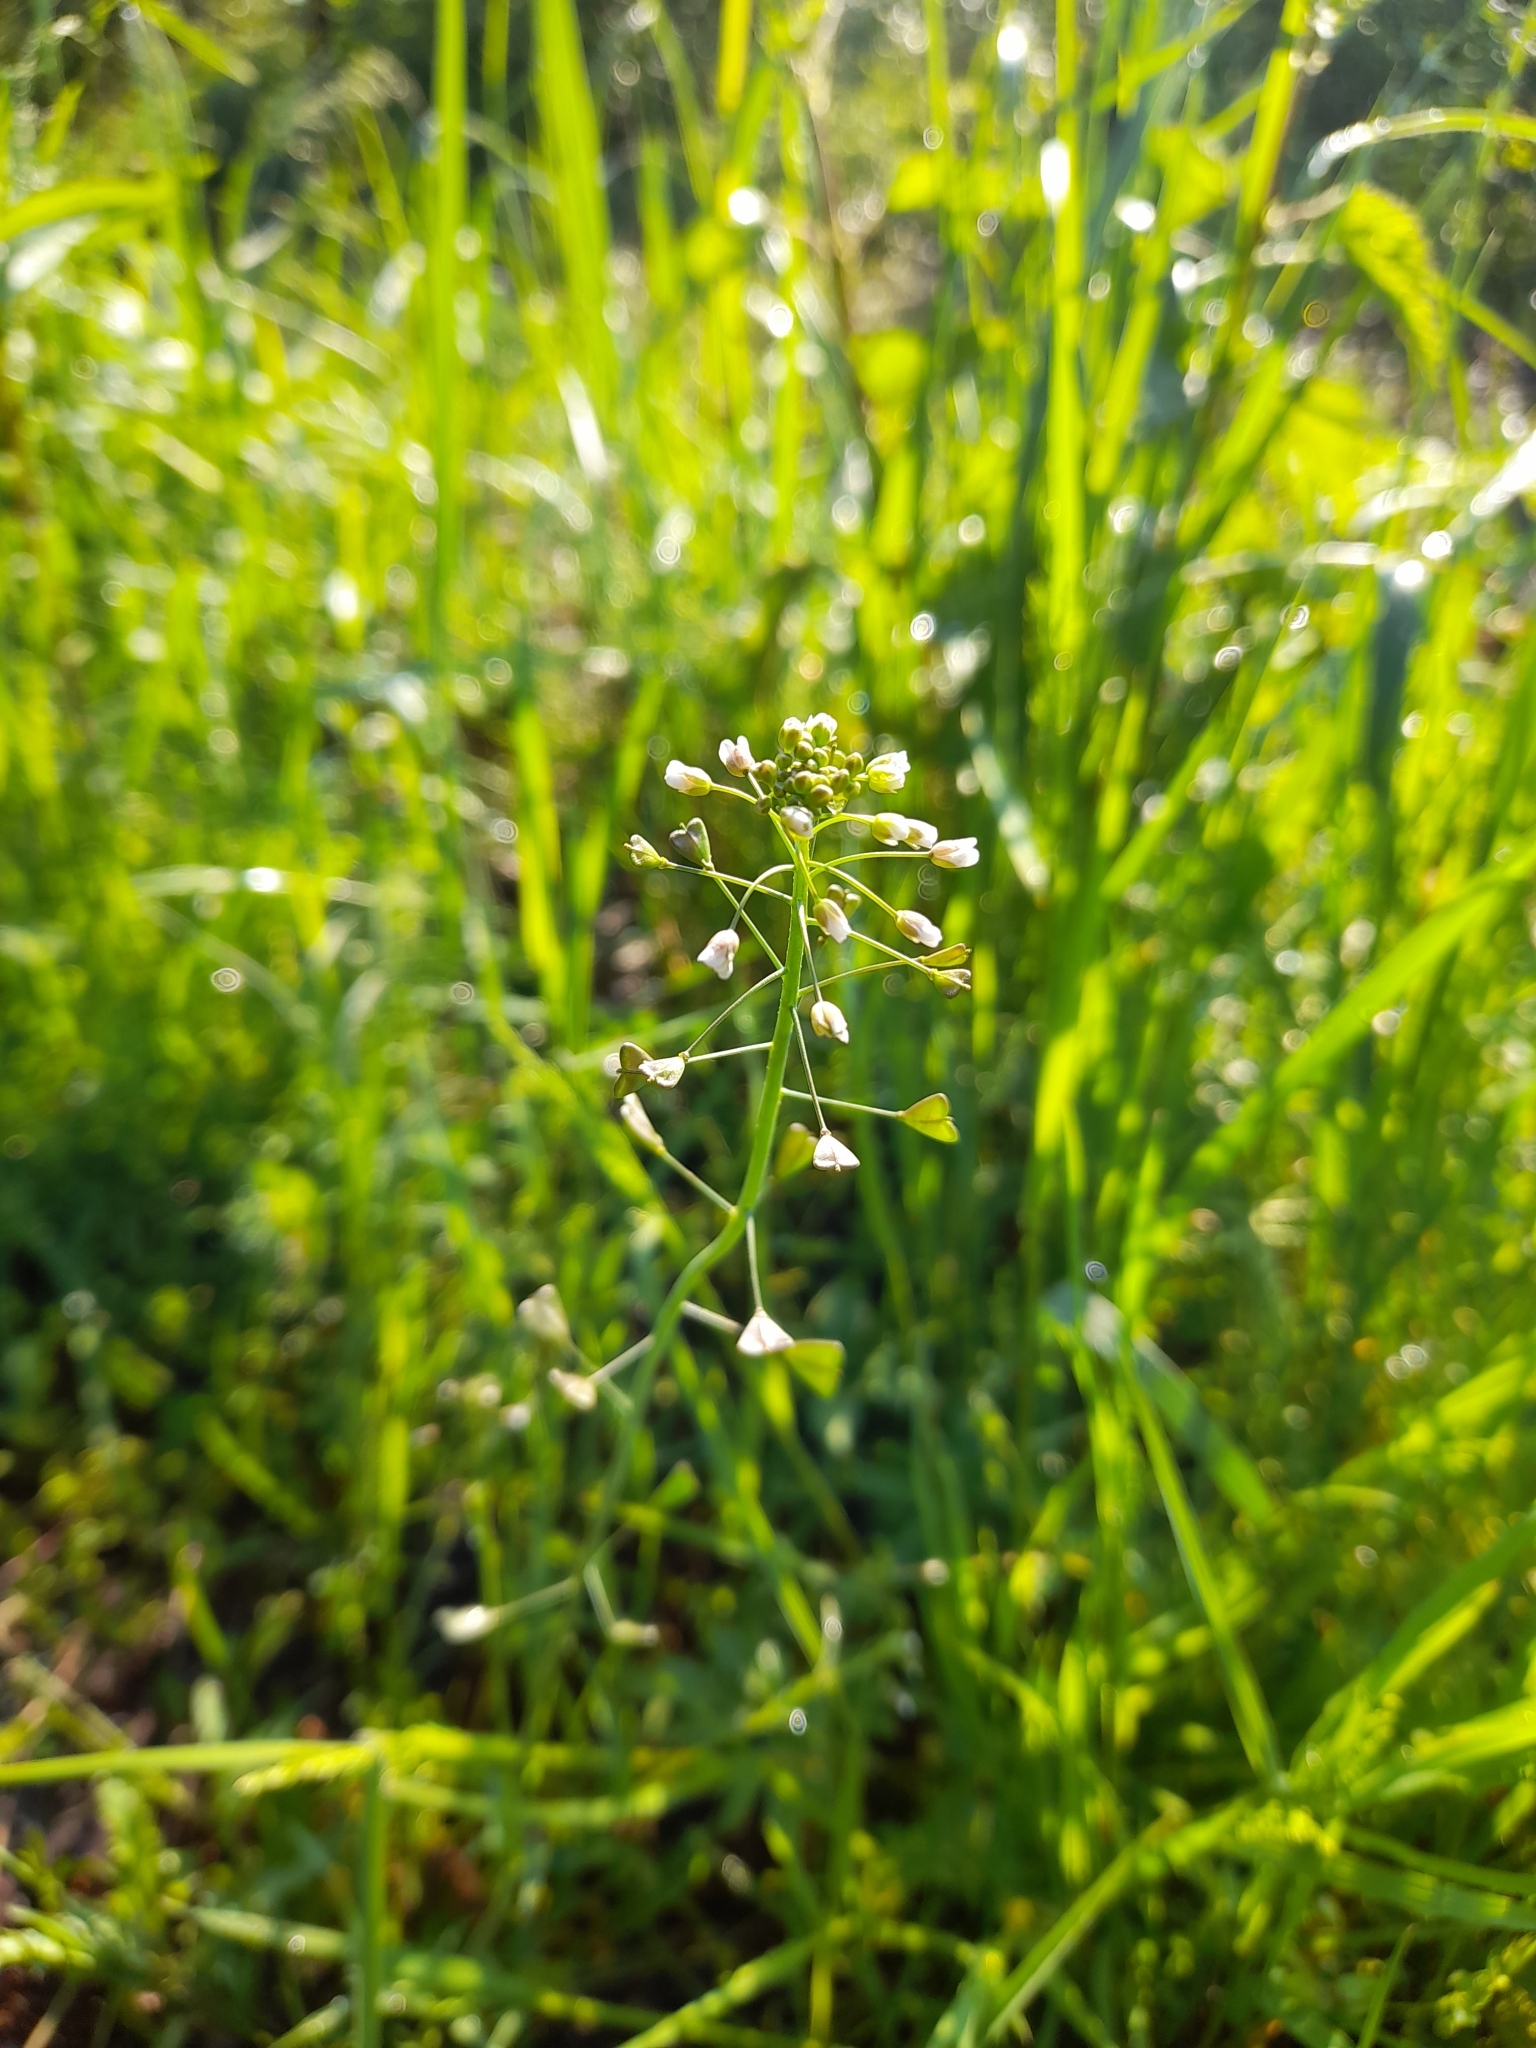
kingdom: Plantae
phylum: Tracheophyta
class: Magnoliopsida
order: Brassicales
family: Brassicaceae
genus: Capsella
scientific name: Capsella bursa-pastoris
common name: Shepherd's purse
